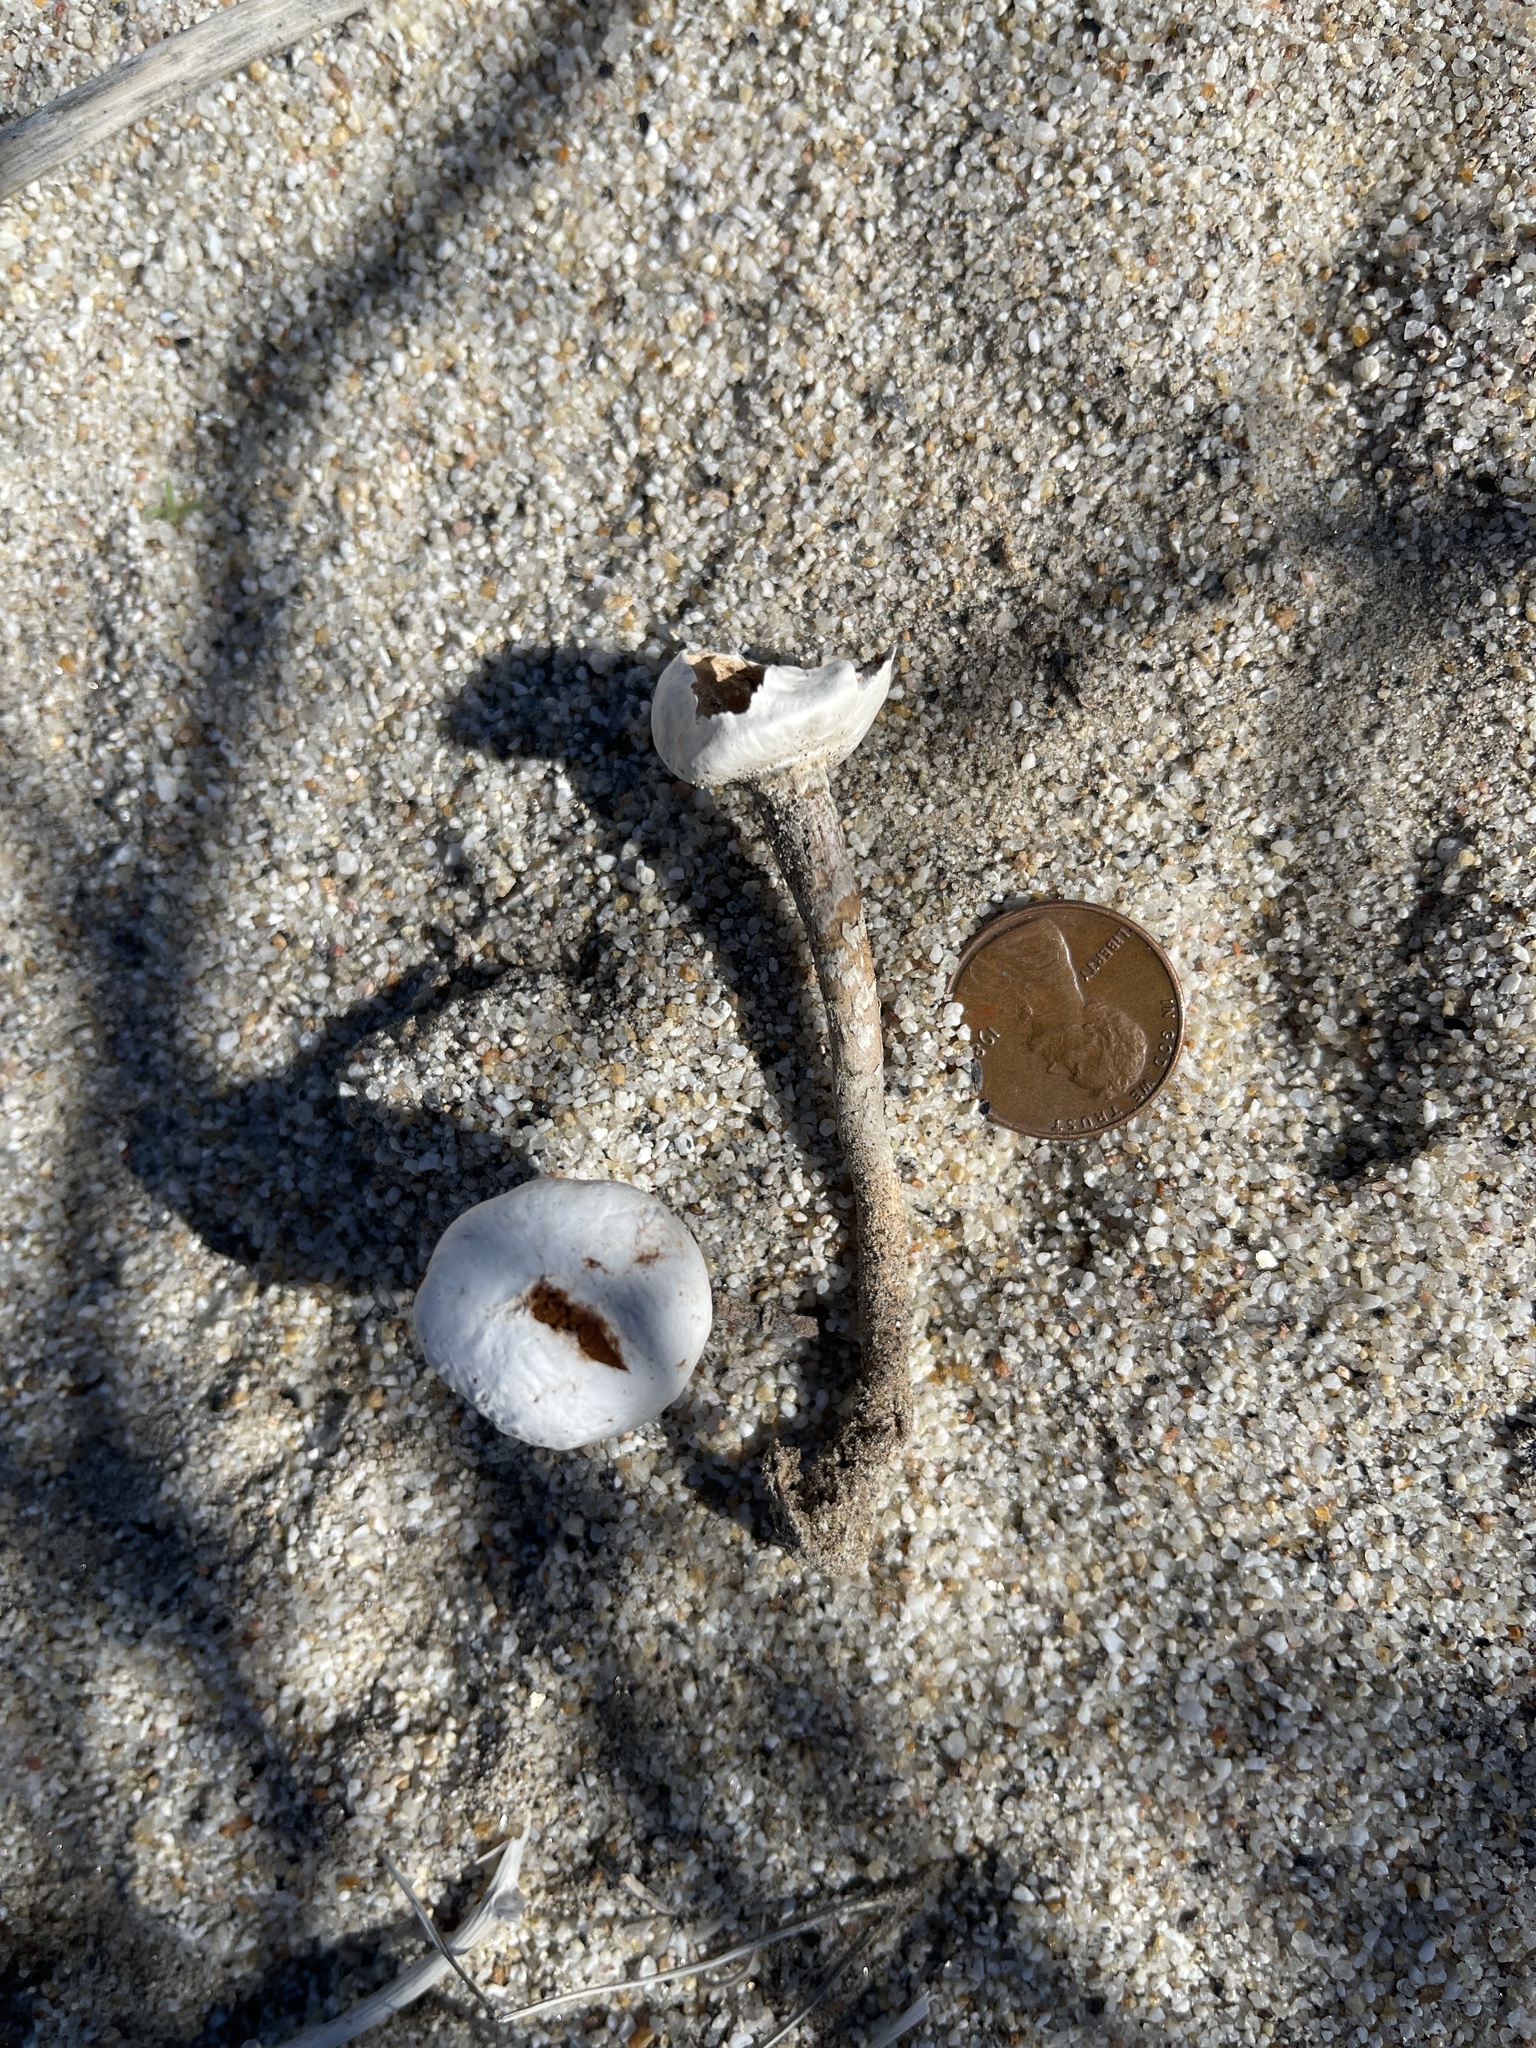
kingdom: Fungi
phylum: Basidiomycota
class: Agaricomycetes
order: Agaricales
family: Agaricaceae
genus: Battarrea
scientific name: Battarrea phalloides
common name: Sandy stiltball
